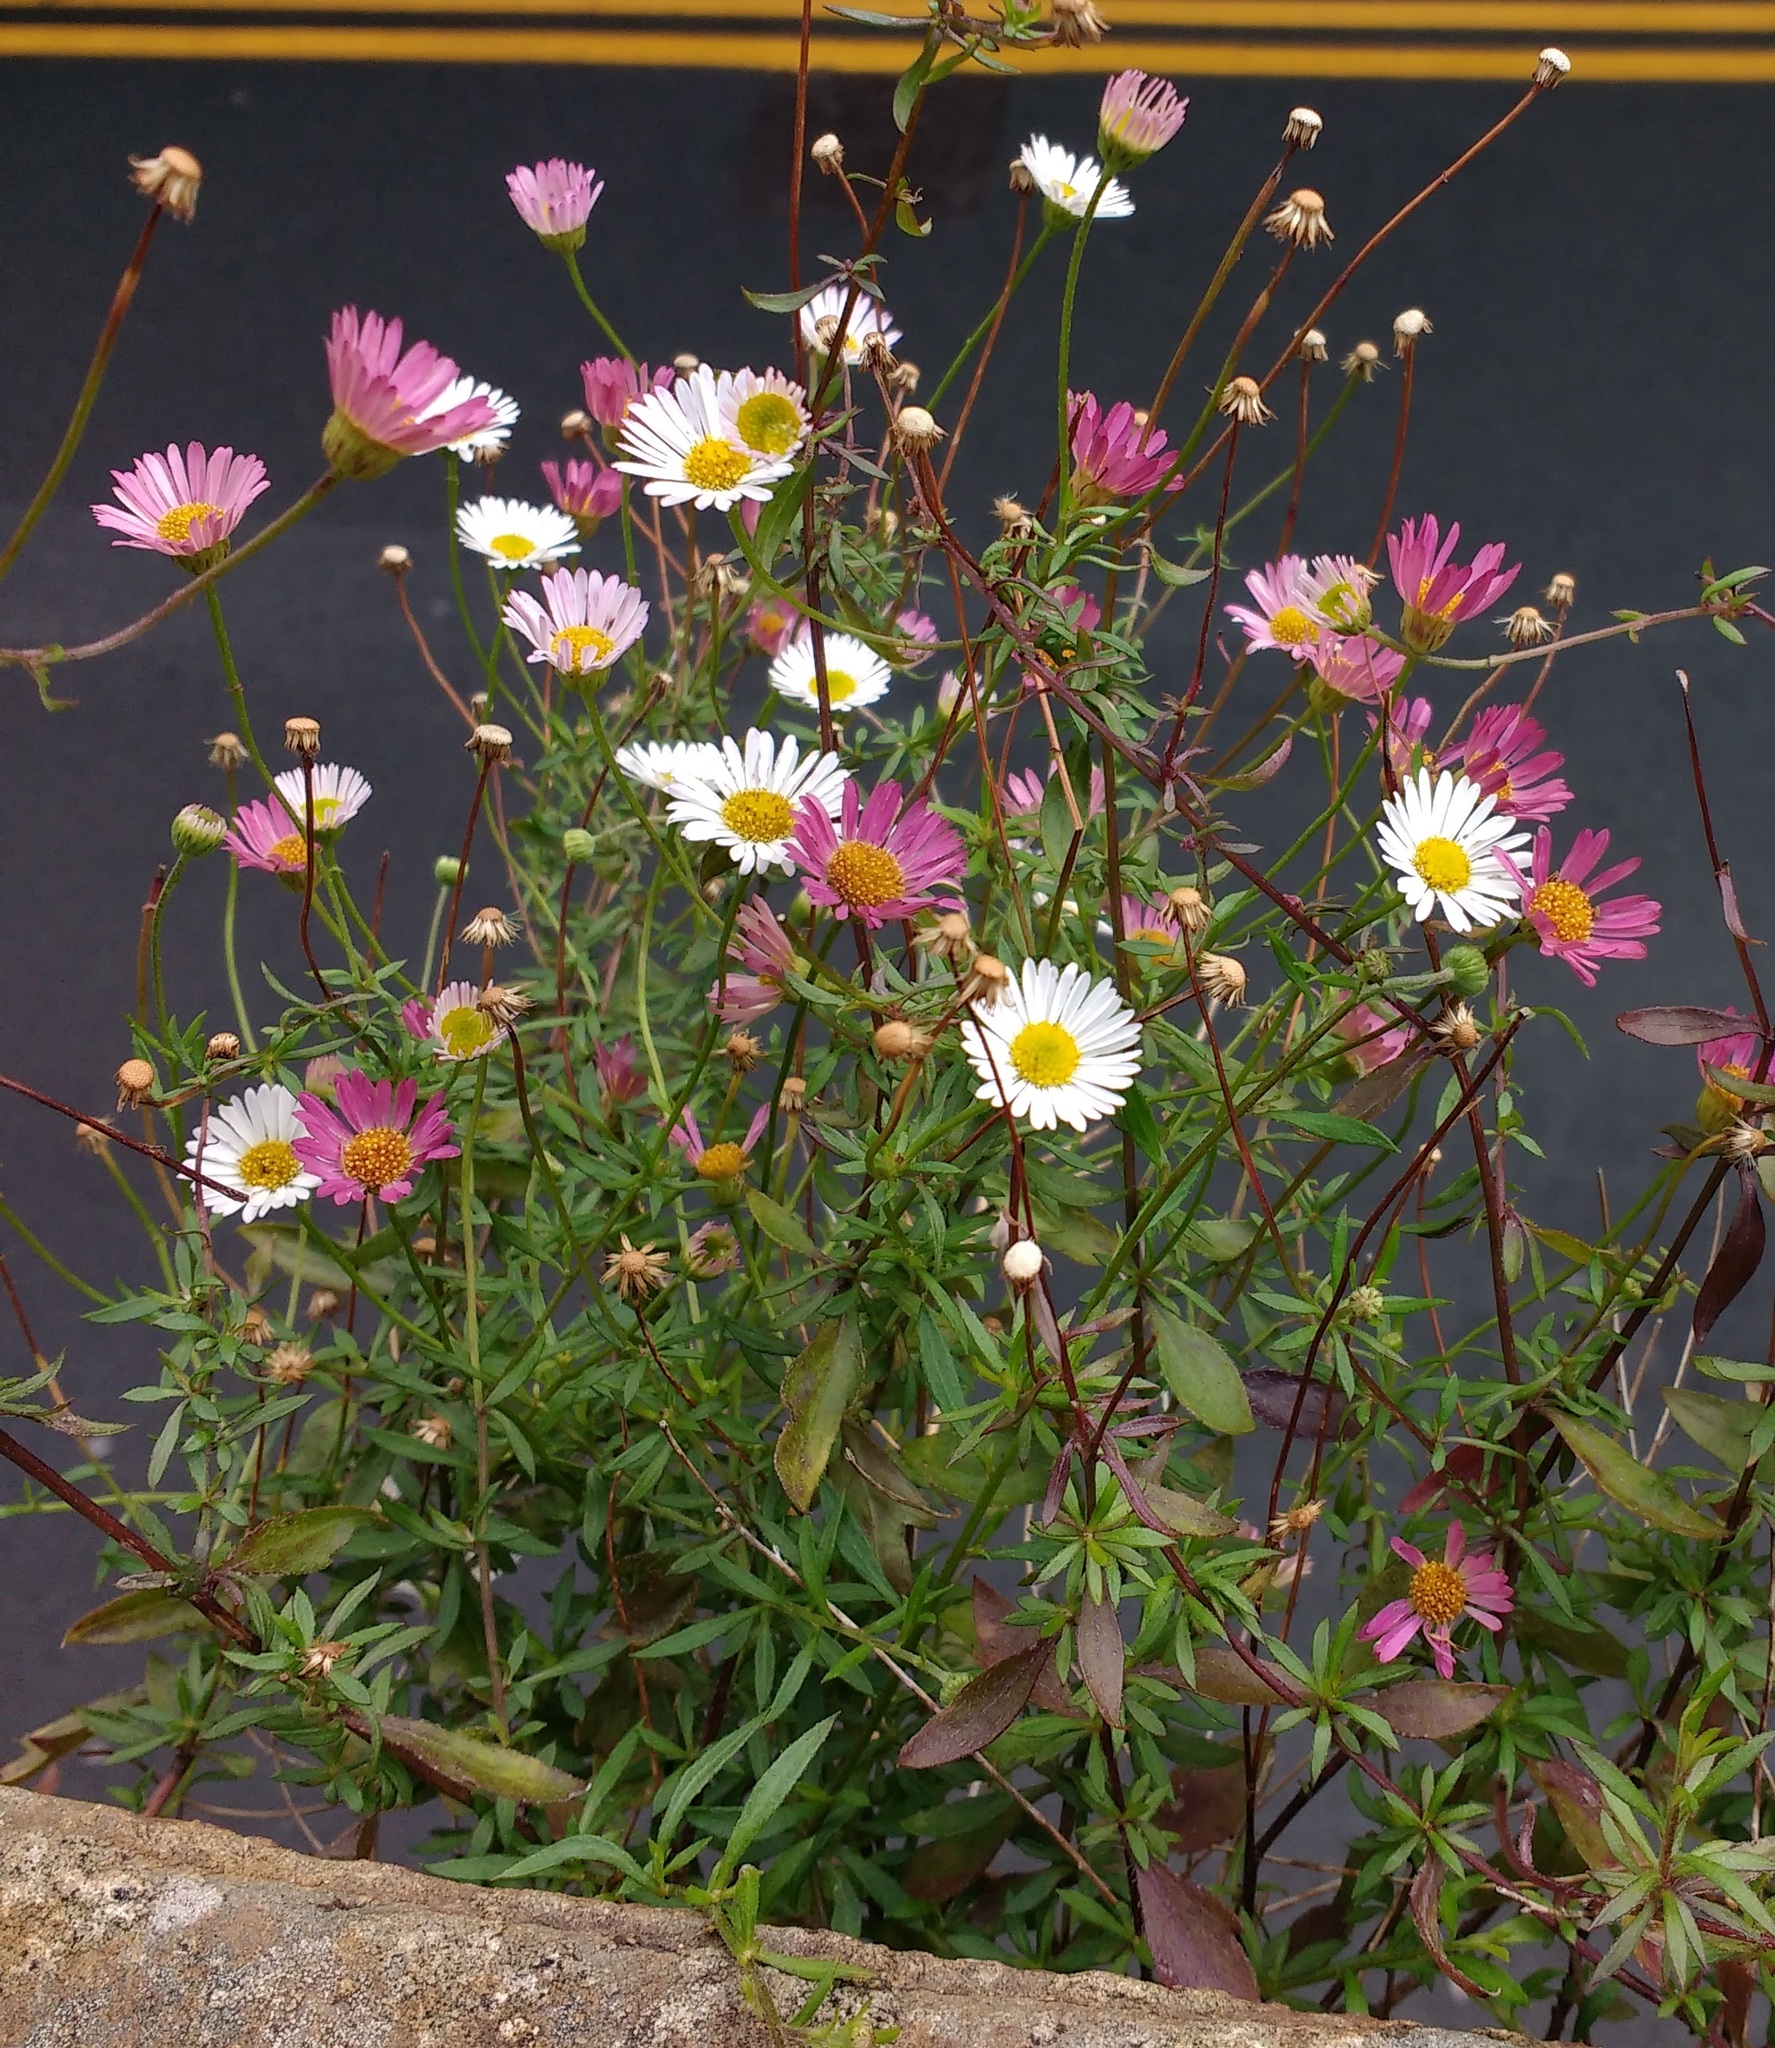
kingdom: Plantae
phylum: Tracheophyta
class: Magnoliopsida
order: Asterales
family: Asteraceae
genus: Erigeron
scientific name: Erigeron karvinskianus
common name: Mexican fleabane
